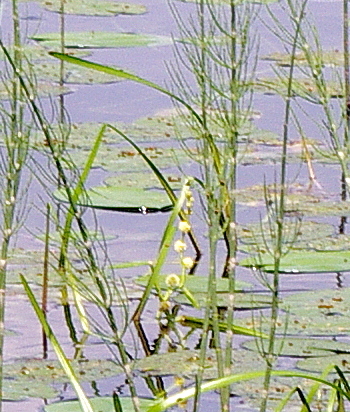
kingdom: Plantae
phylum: Tracheophyta
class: Liliopsida
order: Poales
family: Typhaceae
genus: Sparganium
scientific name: Sparganium emersum
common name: Unbranched bur-reed
